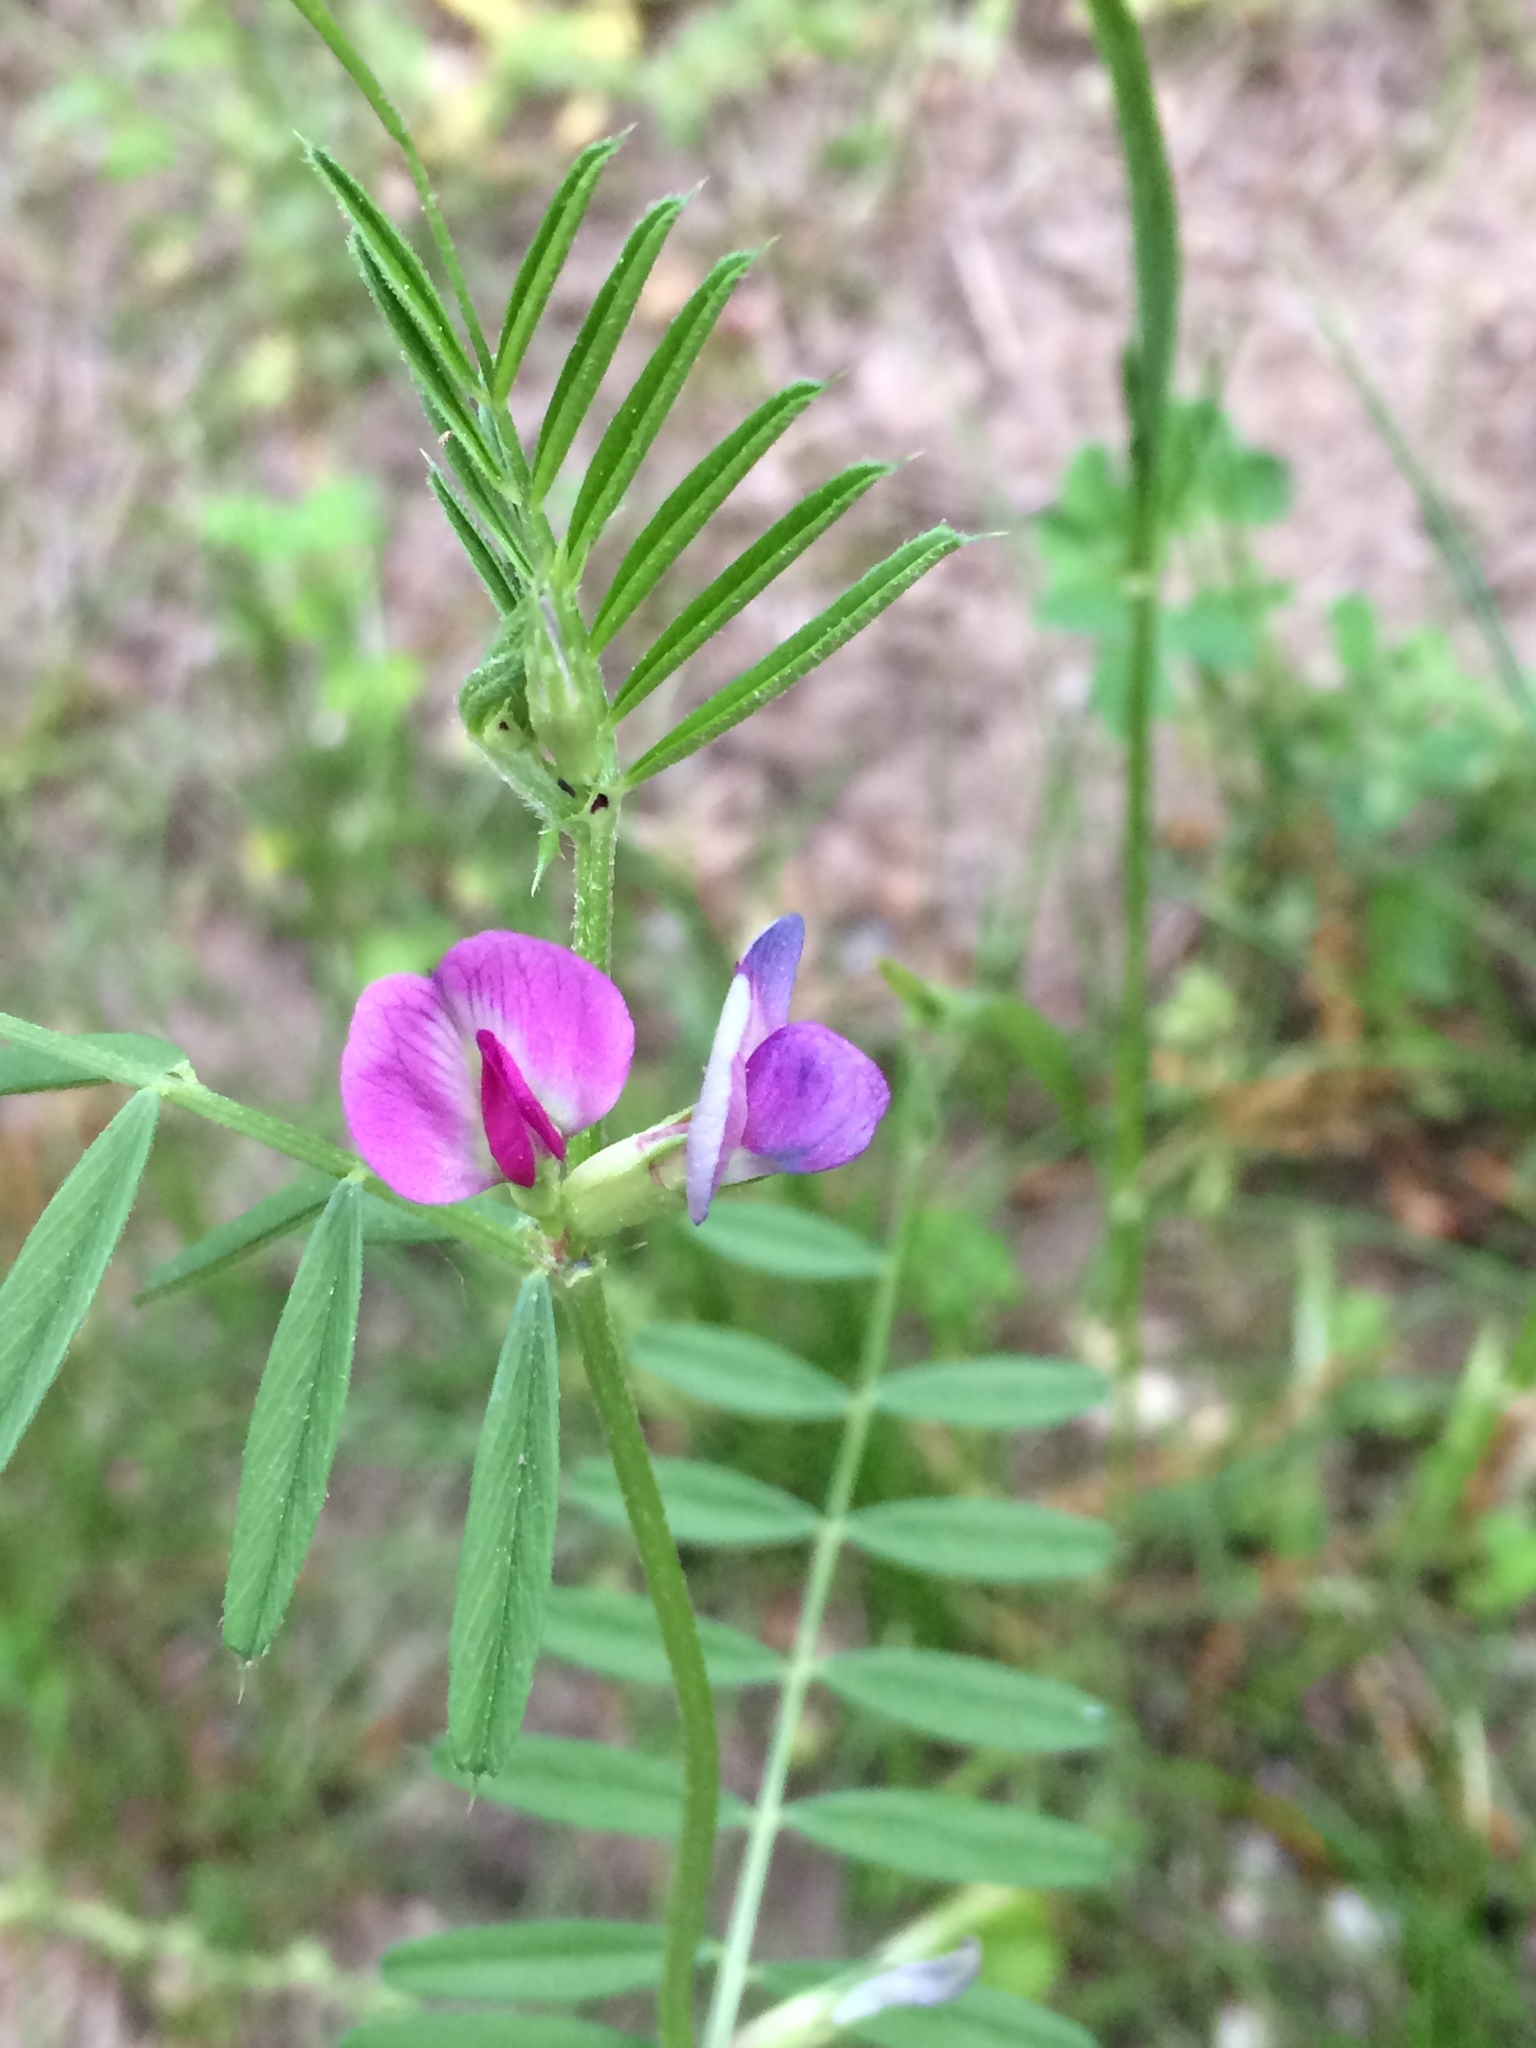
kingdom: Plantae
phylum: Tracheophyta
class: Magnoliopsida
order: Fabales
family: Fabaceae
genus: Vicia
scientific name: Vicia sativa
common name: Garden vetch
